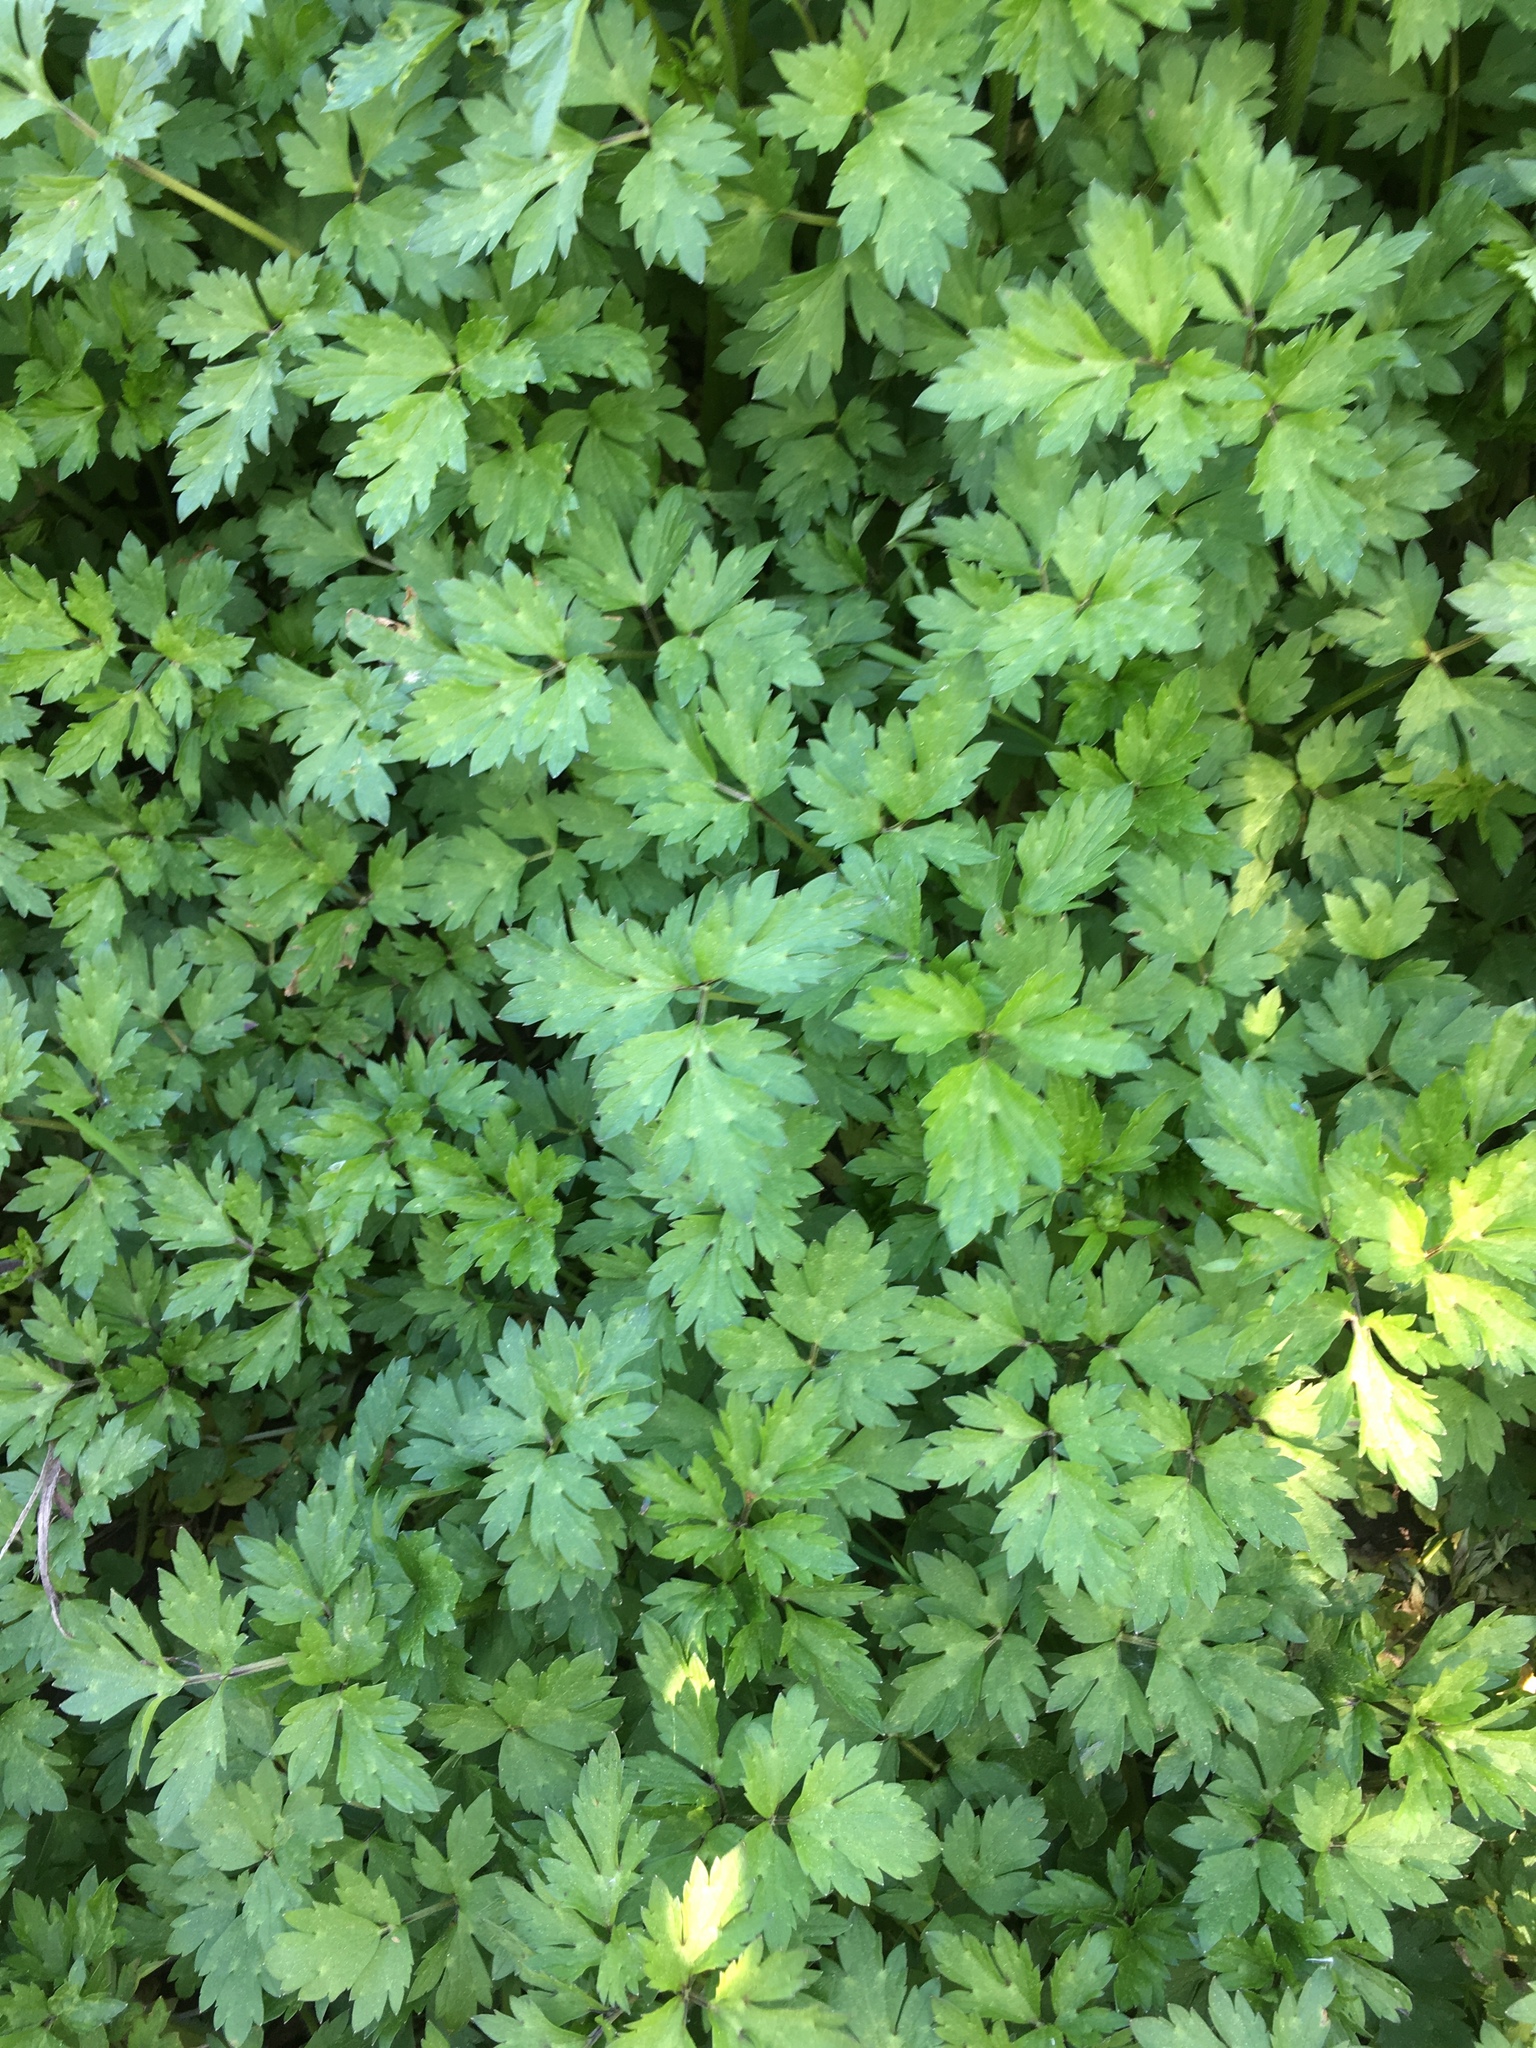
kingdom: Plantae
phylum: Tracheophyta
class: Magnoliopsida
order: Ranunculales
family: Ranunculaceae
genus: Ranunculus
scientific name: Ranunculus repens
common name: Creeping buttercup
